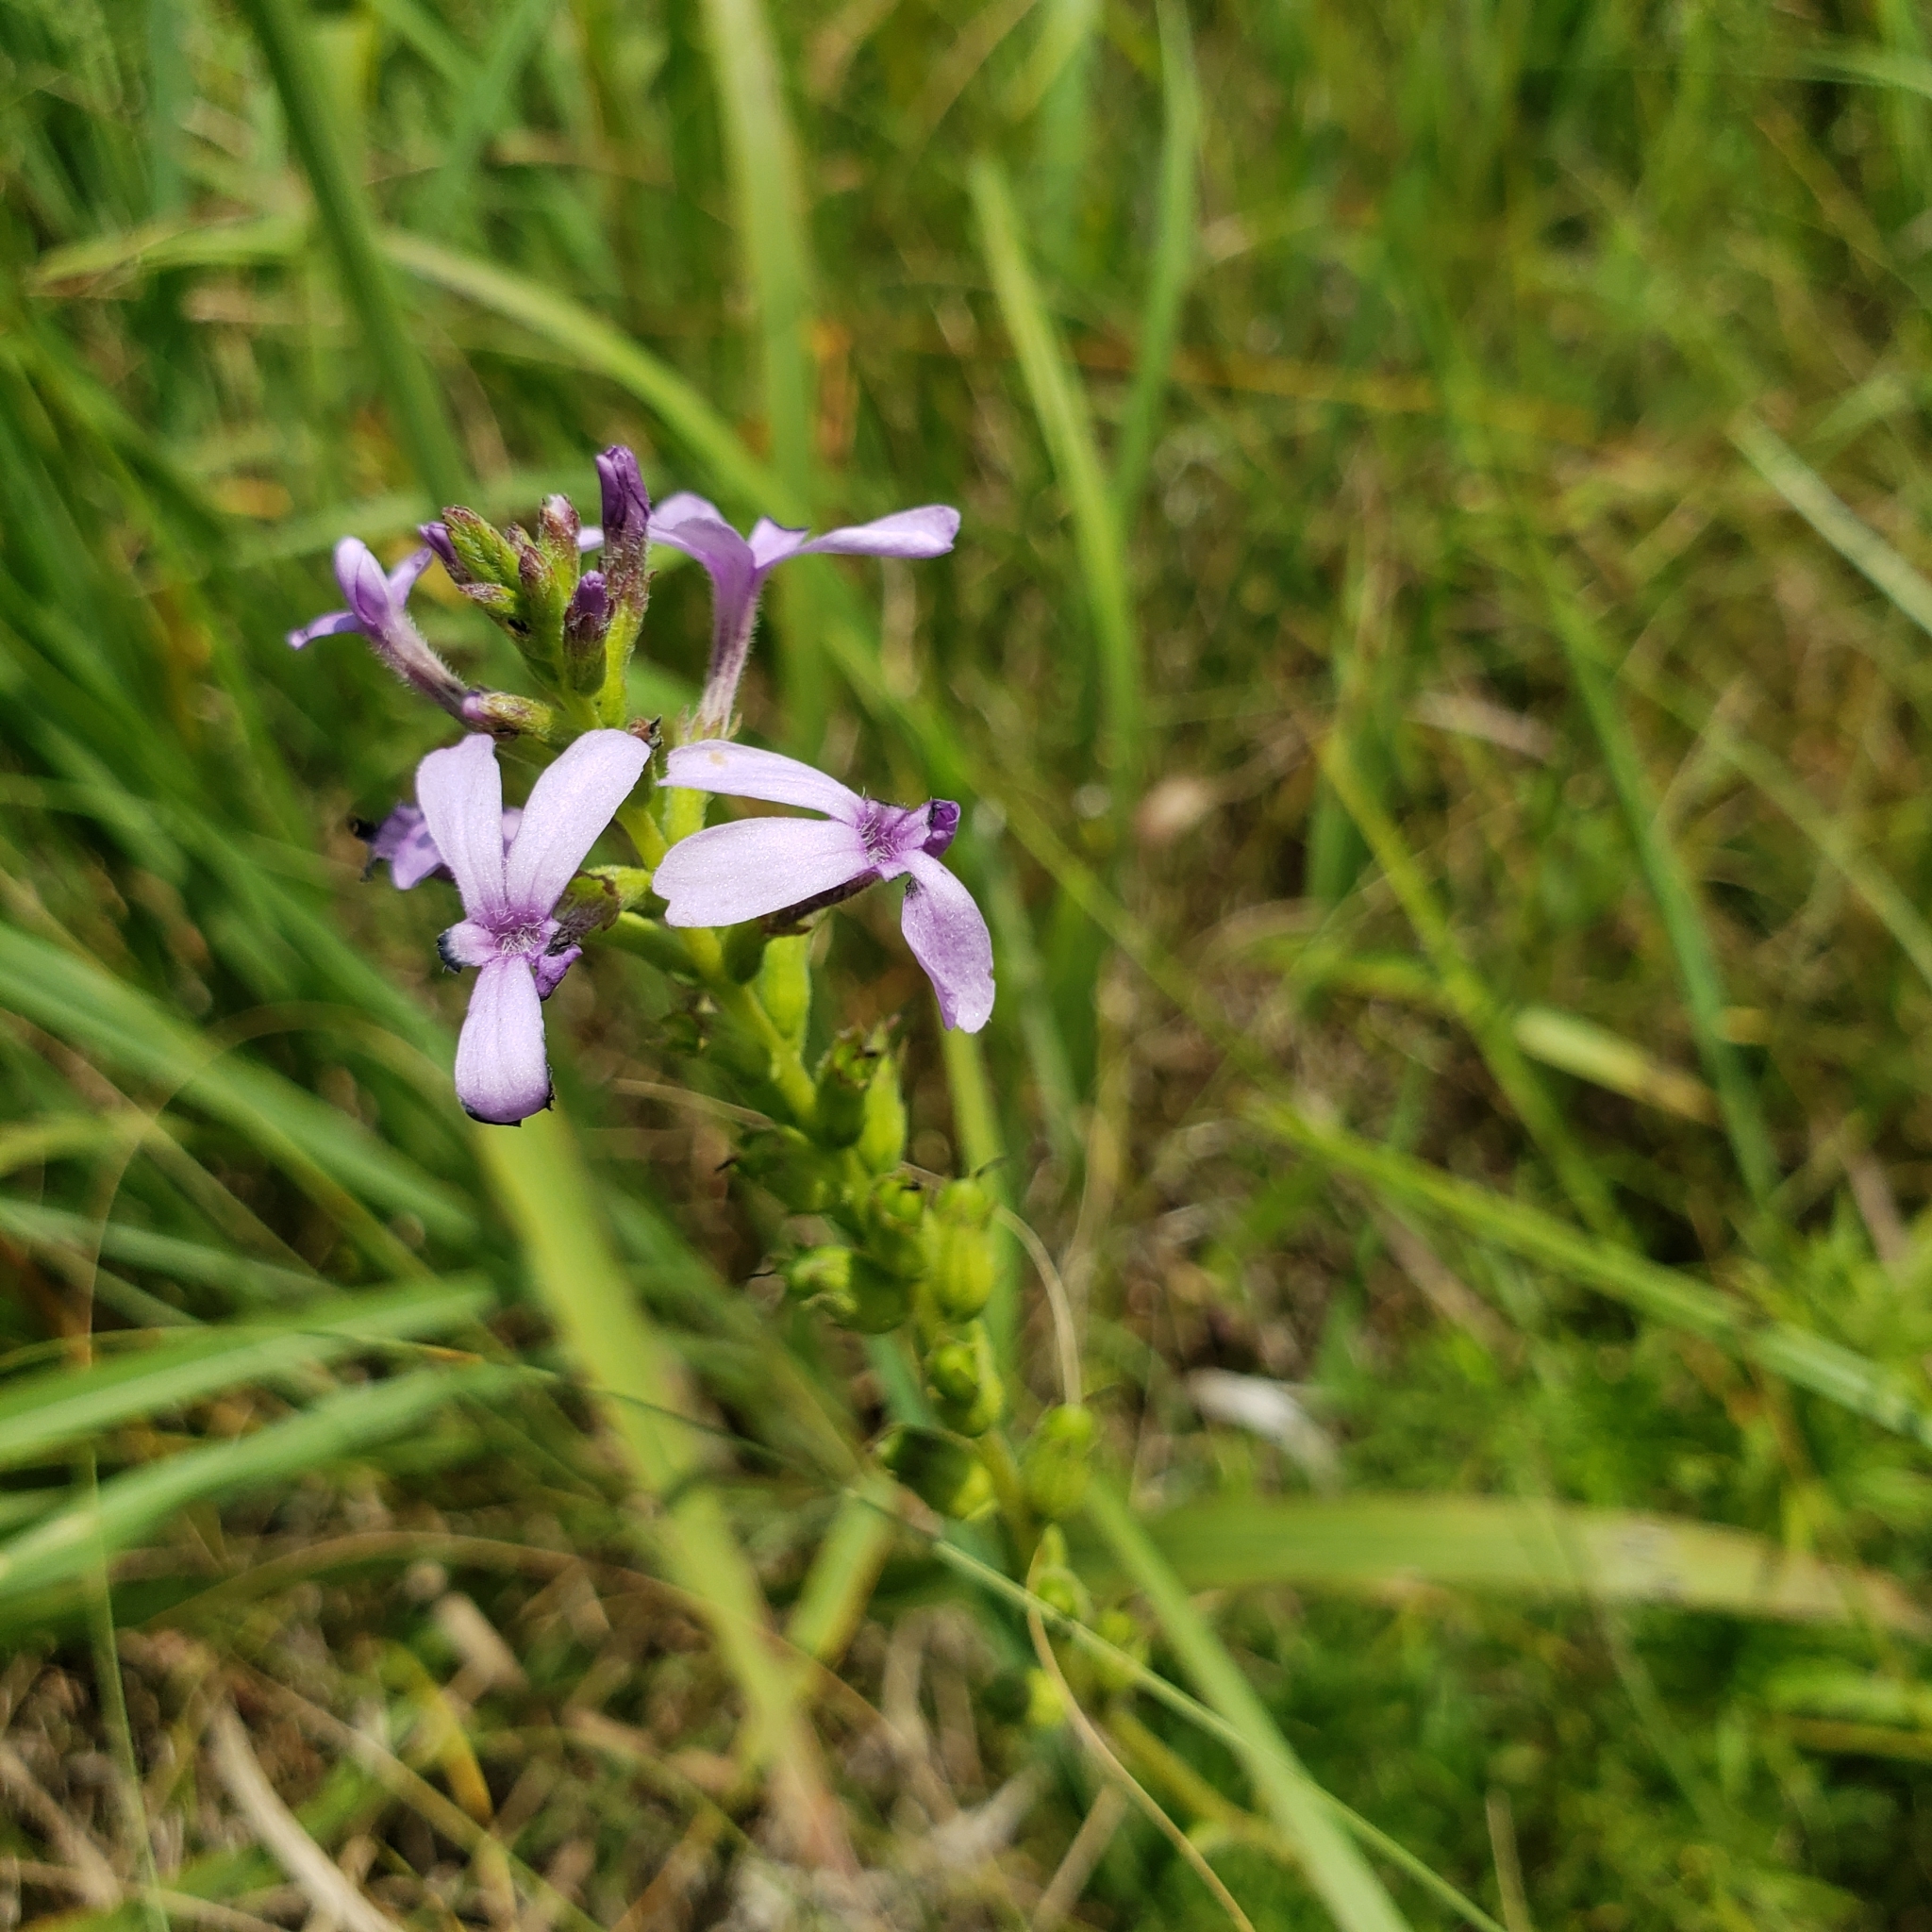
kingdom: Plantae
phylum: Tracheophyta
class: Magnoliopsida
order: Lamiales
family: Orobanchaceae
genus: Buchnera
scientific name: Buchnera americana
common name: American bluehearts
